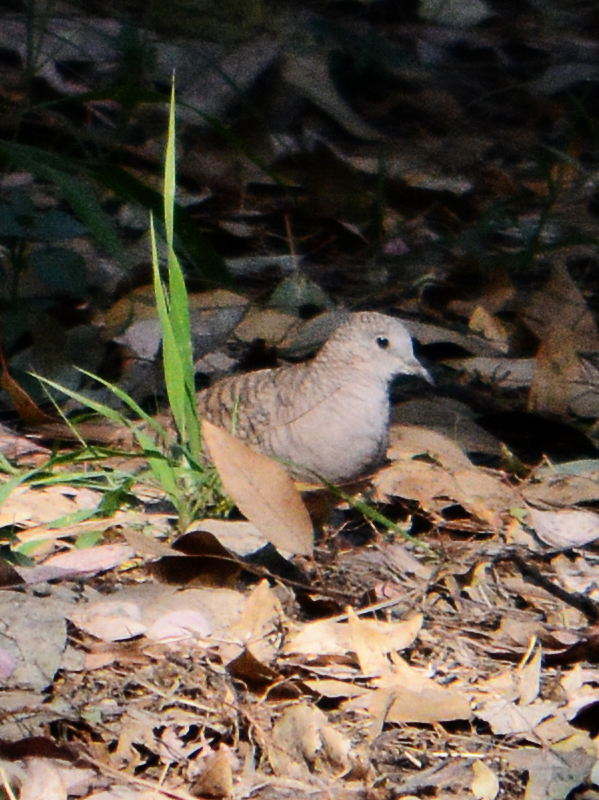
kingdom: Animalia
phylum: Chordata
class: Aves
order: Columbiformes
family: Columbidae
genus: Columbina
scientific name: Columbina inca
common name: Inca dove
